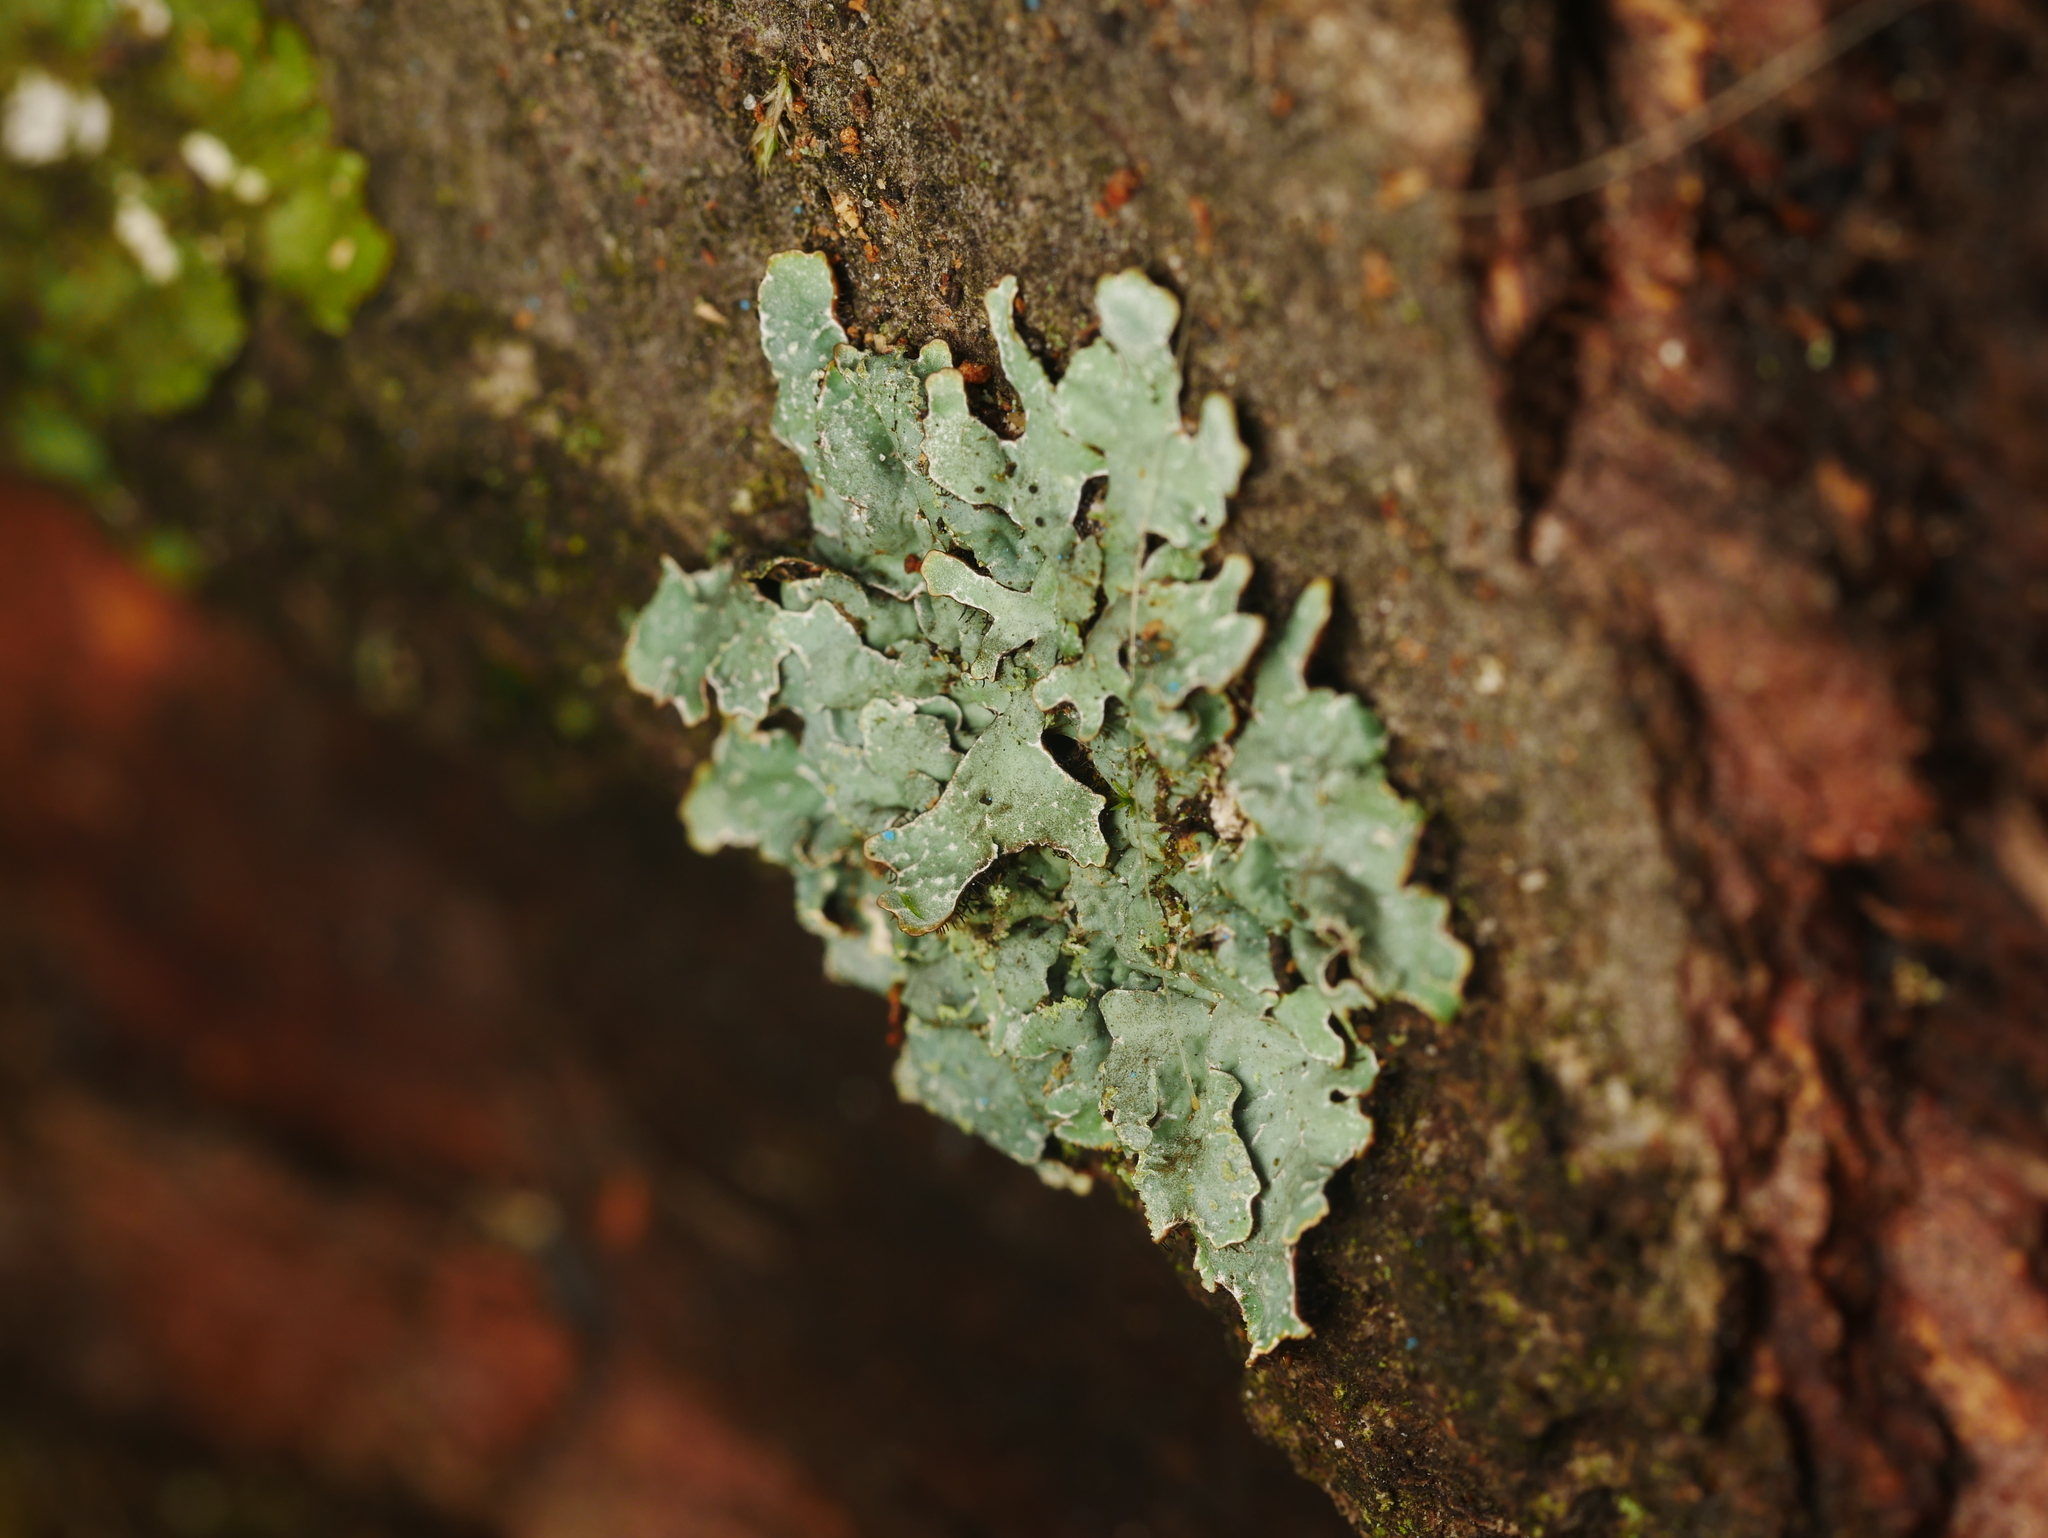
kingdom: Fungi
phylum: Ascomycota
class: Lecanoromycetes
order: Lecanorales
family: Parmeliaceae
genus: Parmelia
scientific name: Parmelia sulcata
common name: Netted shield lichen
